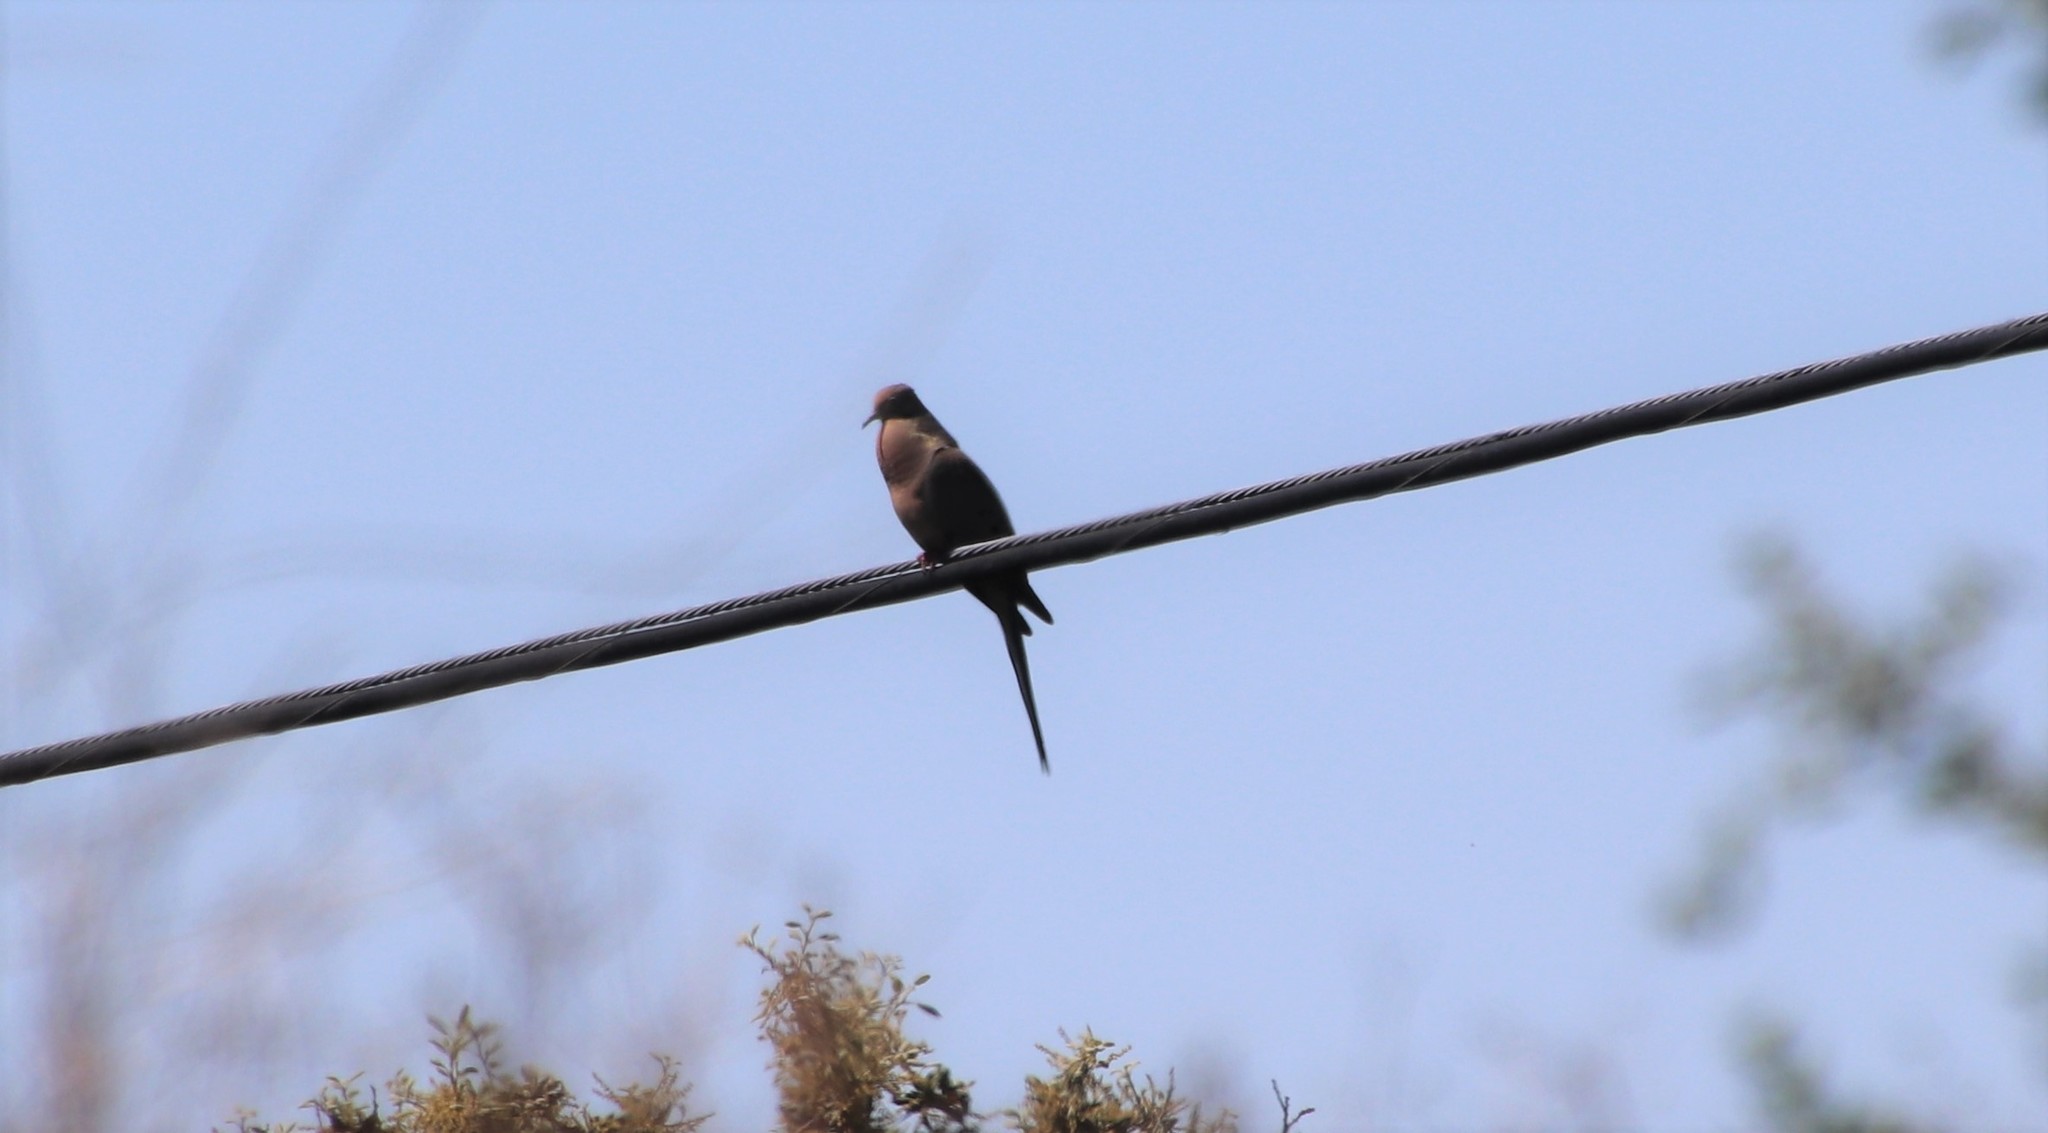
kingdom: Animalia
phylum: Chordata
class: Aves
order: Columbiformes
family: Columbidae
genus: Zenaida
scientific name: Zenaida macroura
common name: Mourning dove
